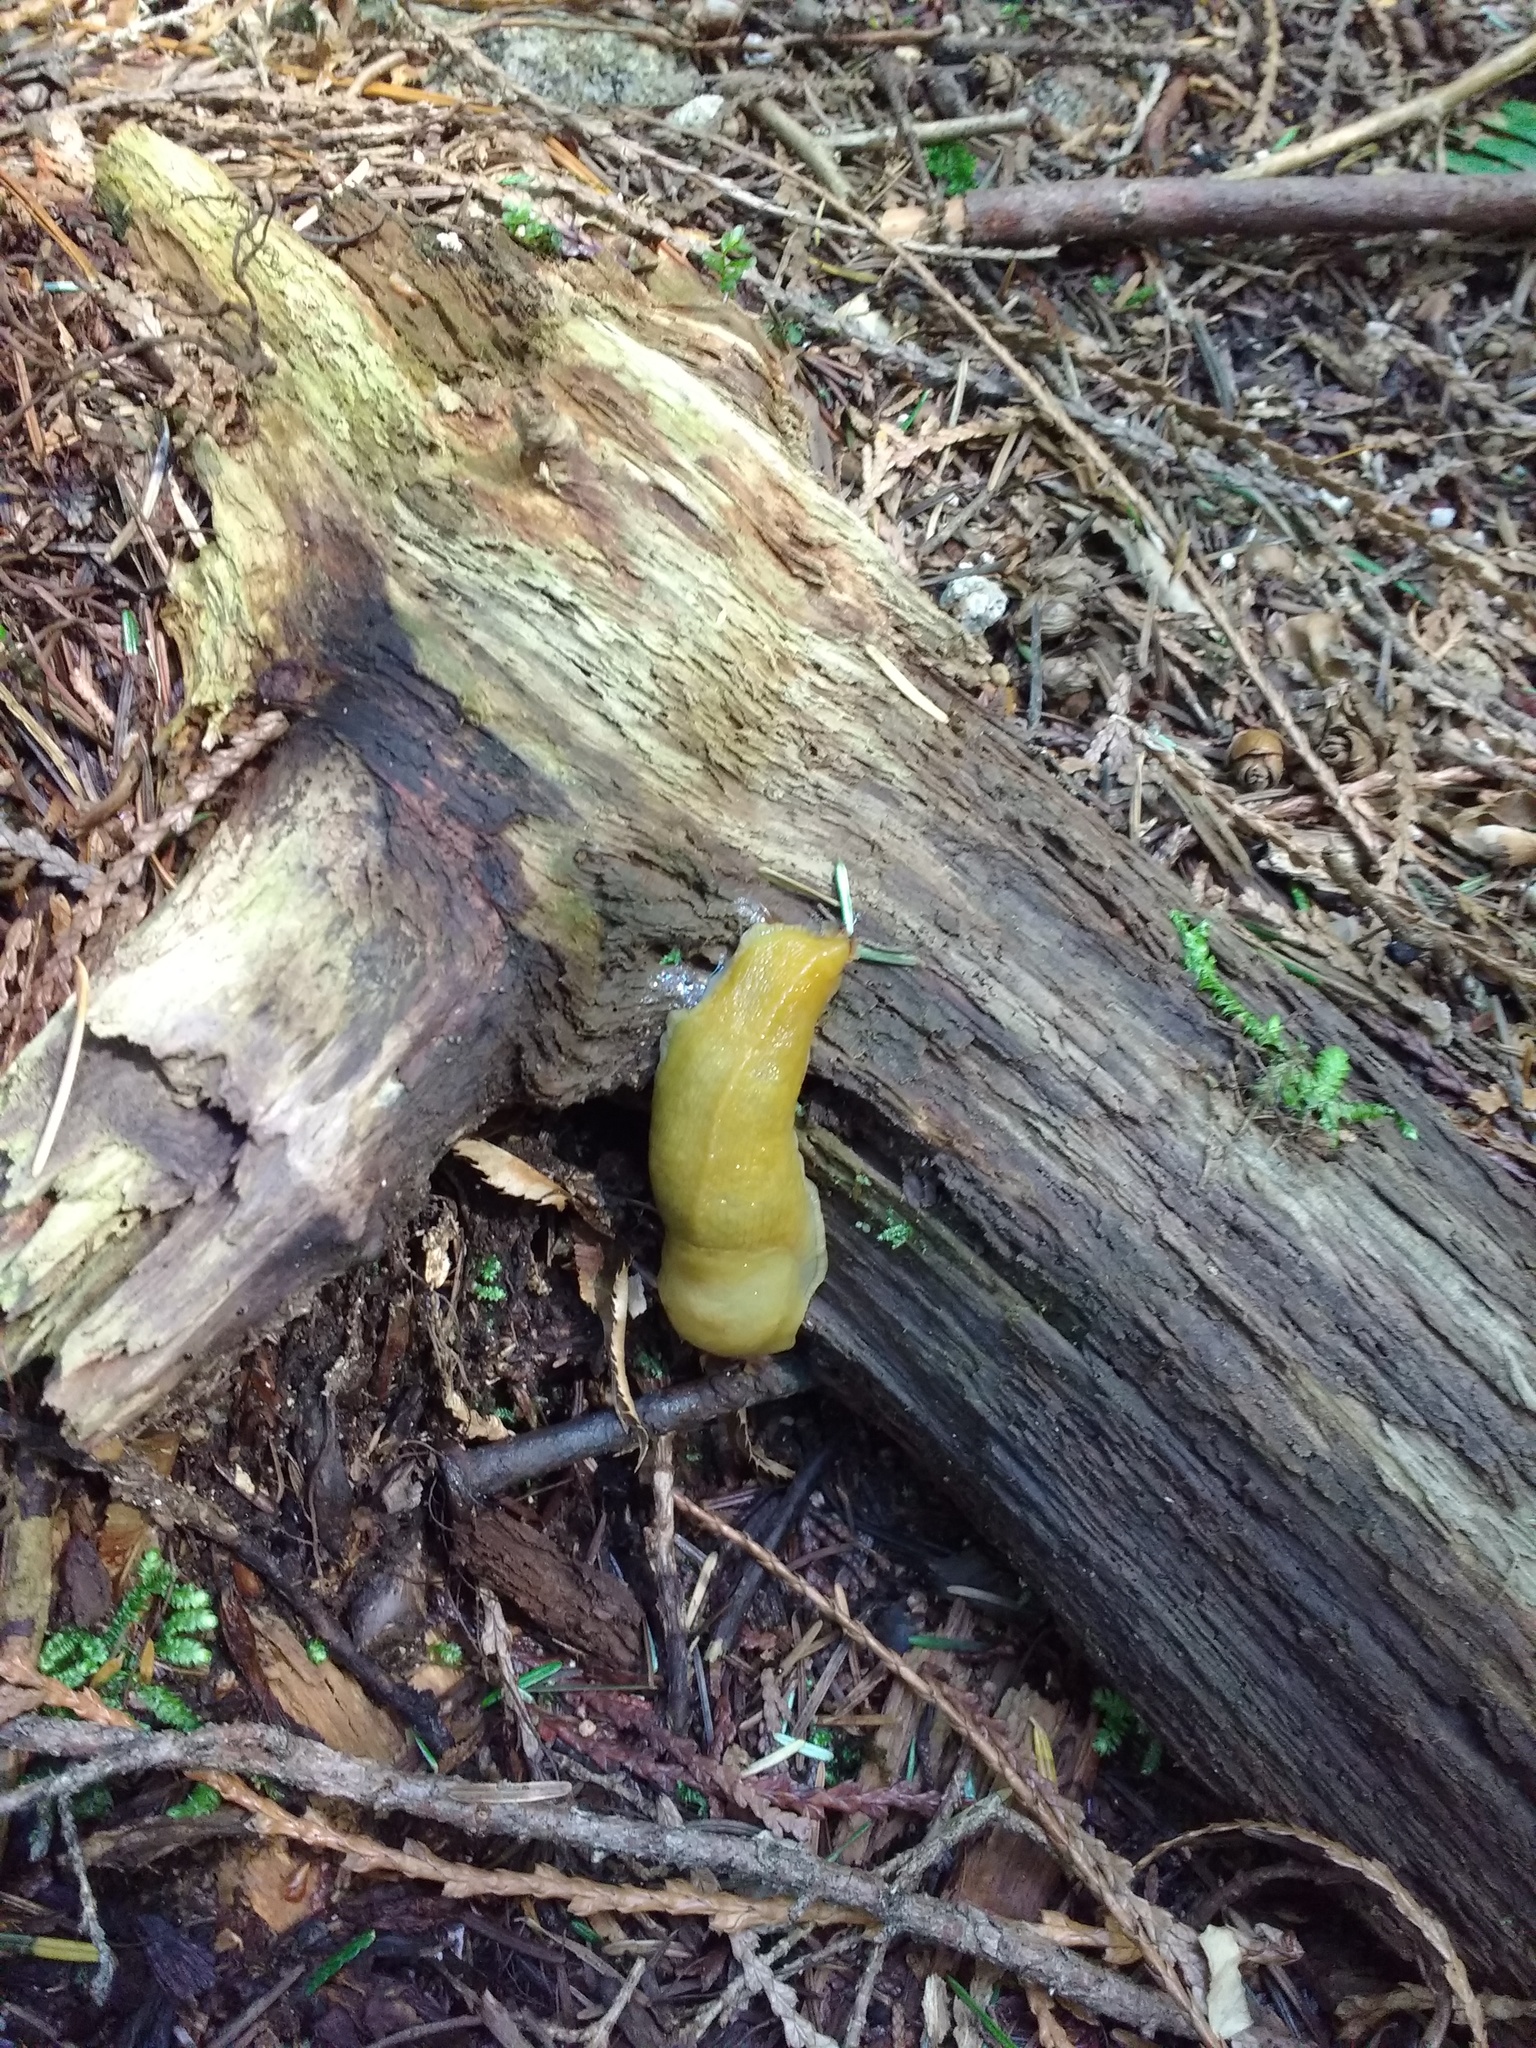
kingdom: Animalia
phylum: Mollusca
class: Gastropoda
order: Stylommatophora
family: Ariolimacidae
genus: Ariolimax
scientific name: Ariolimax columbianus
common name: Pacific banana slug
